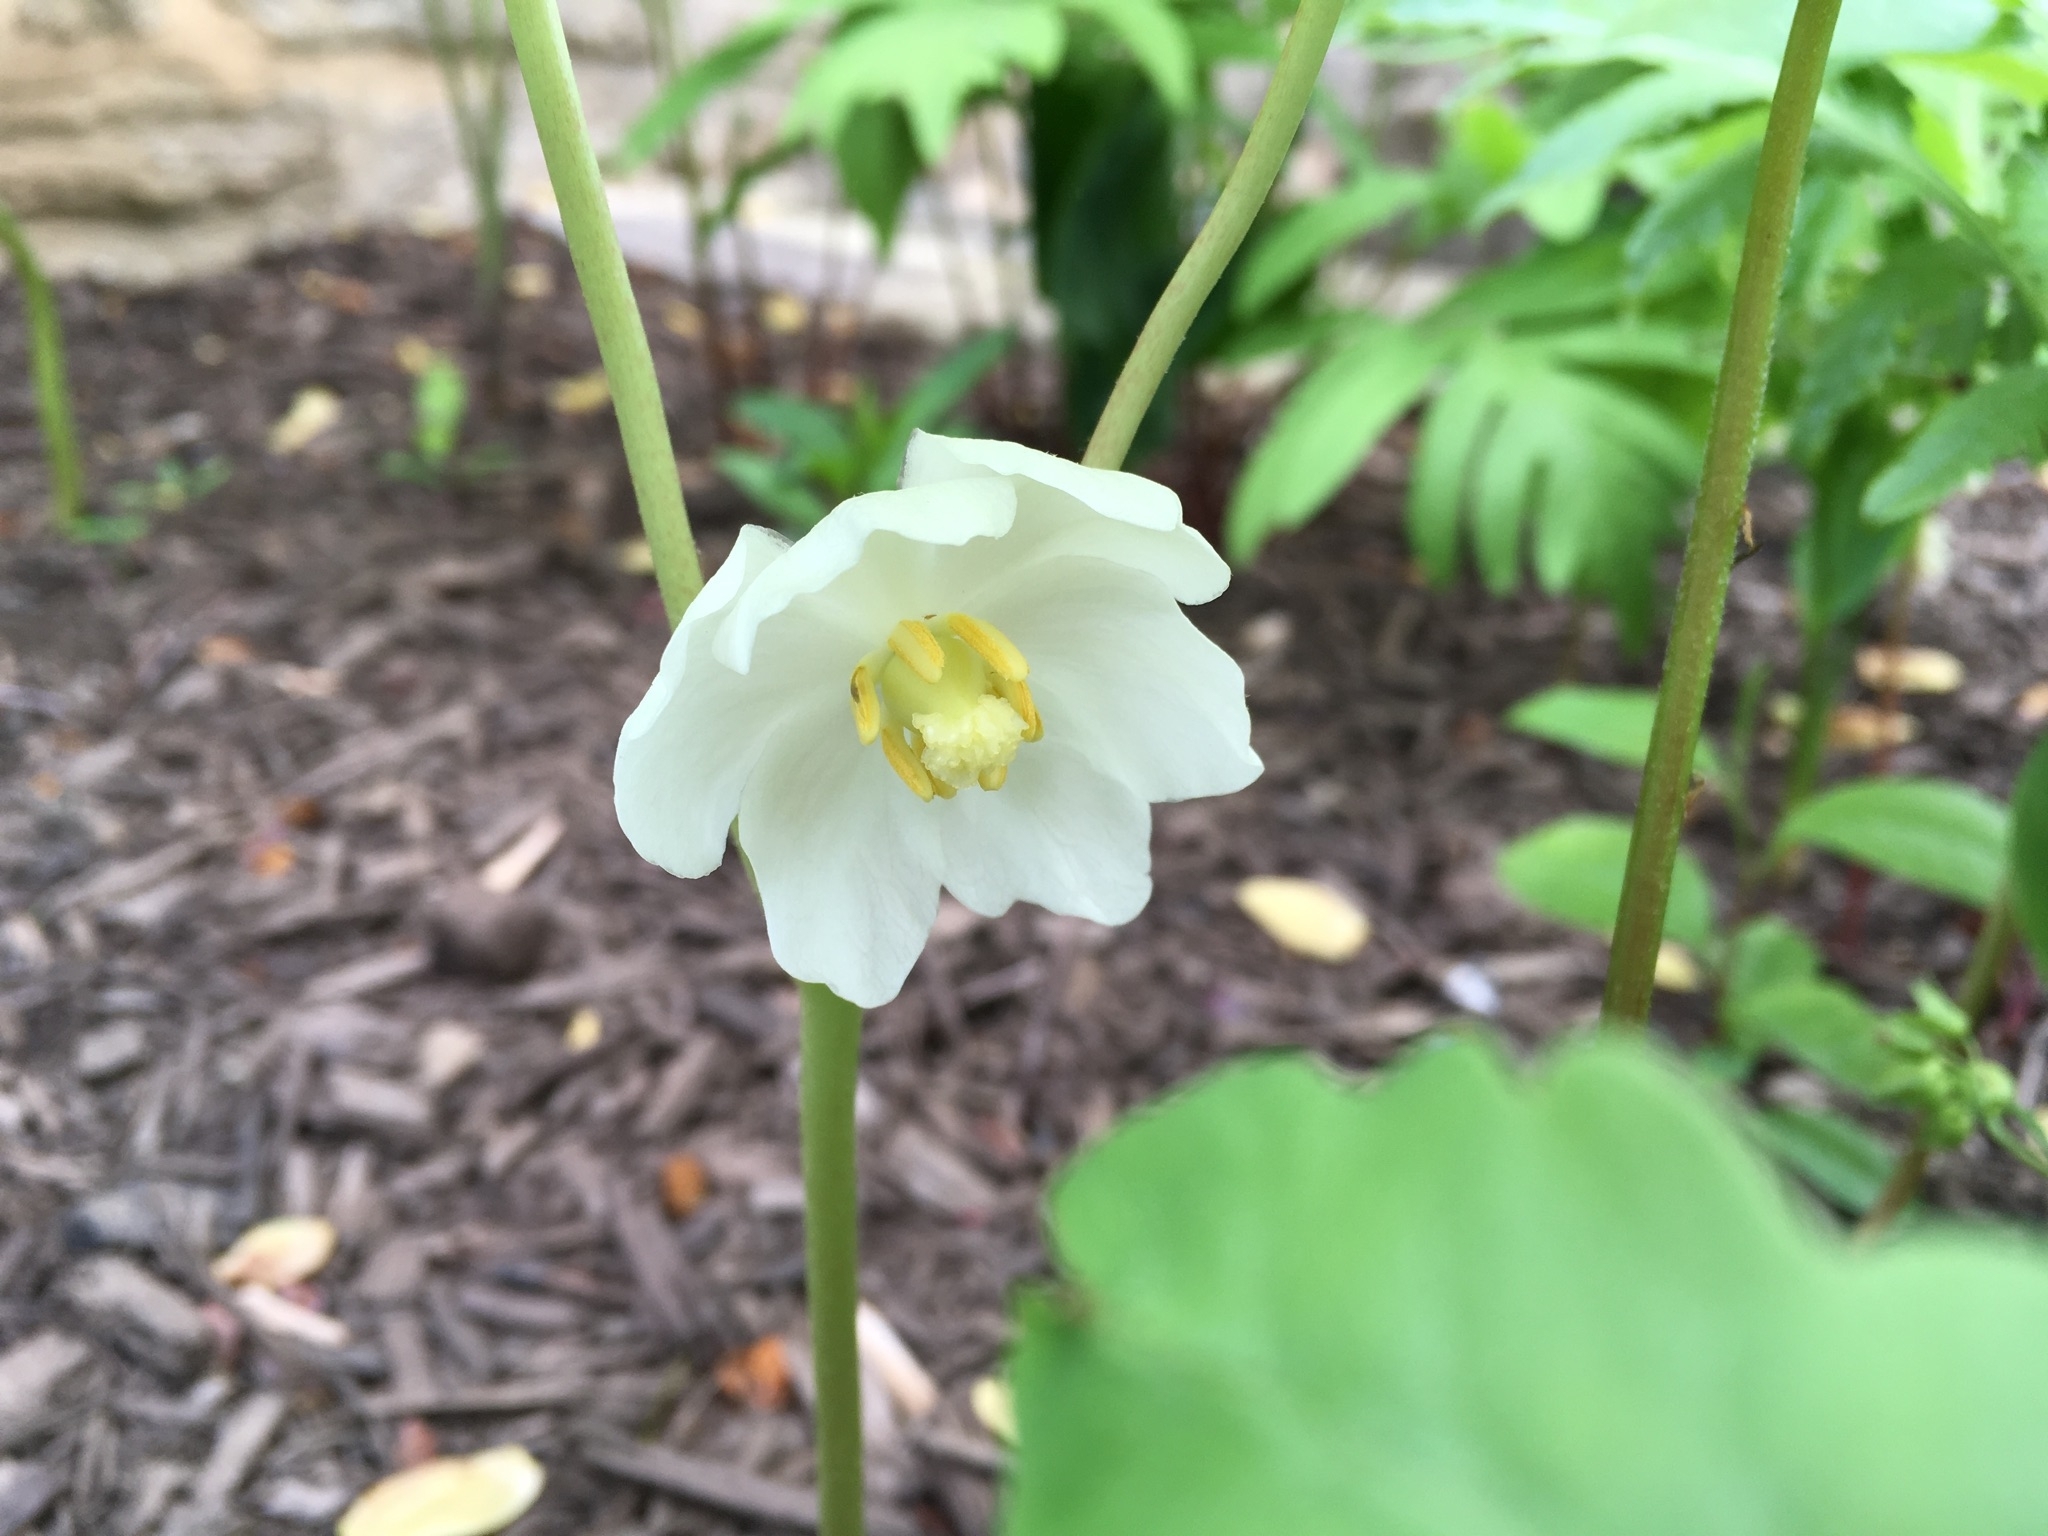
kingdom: Plantae
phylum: Tracheophyta
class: Magnoliopsida
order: Ranunculales
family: Berberidaceae
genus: Podophyllum
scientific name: Podophyllum peltatum
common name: Wild mandrake
